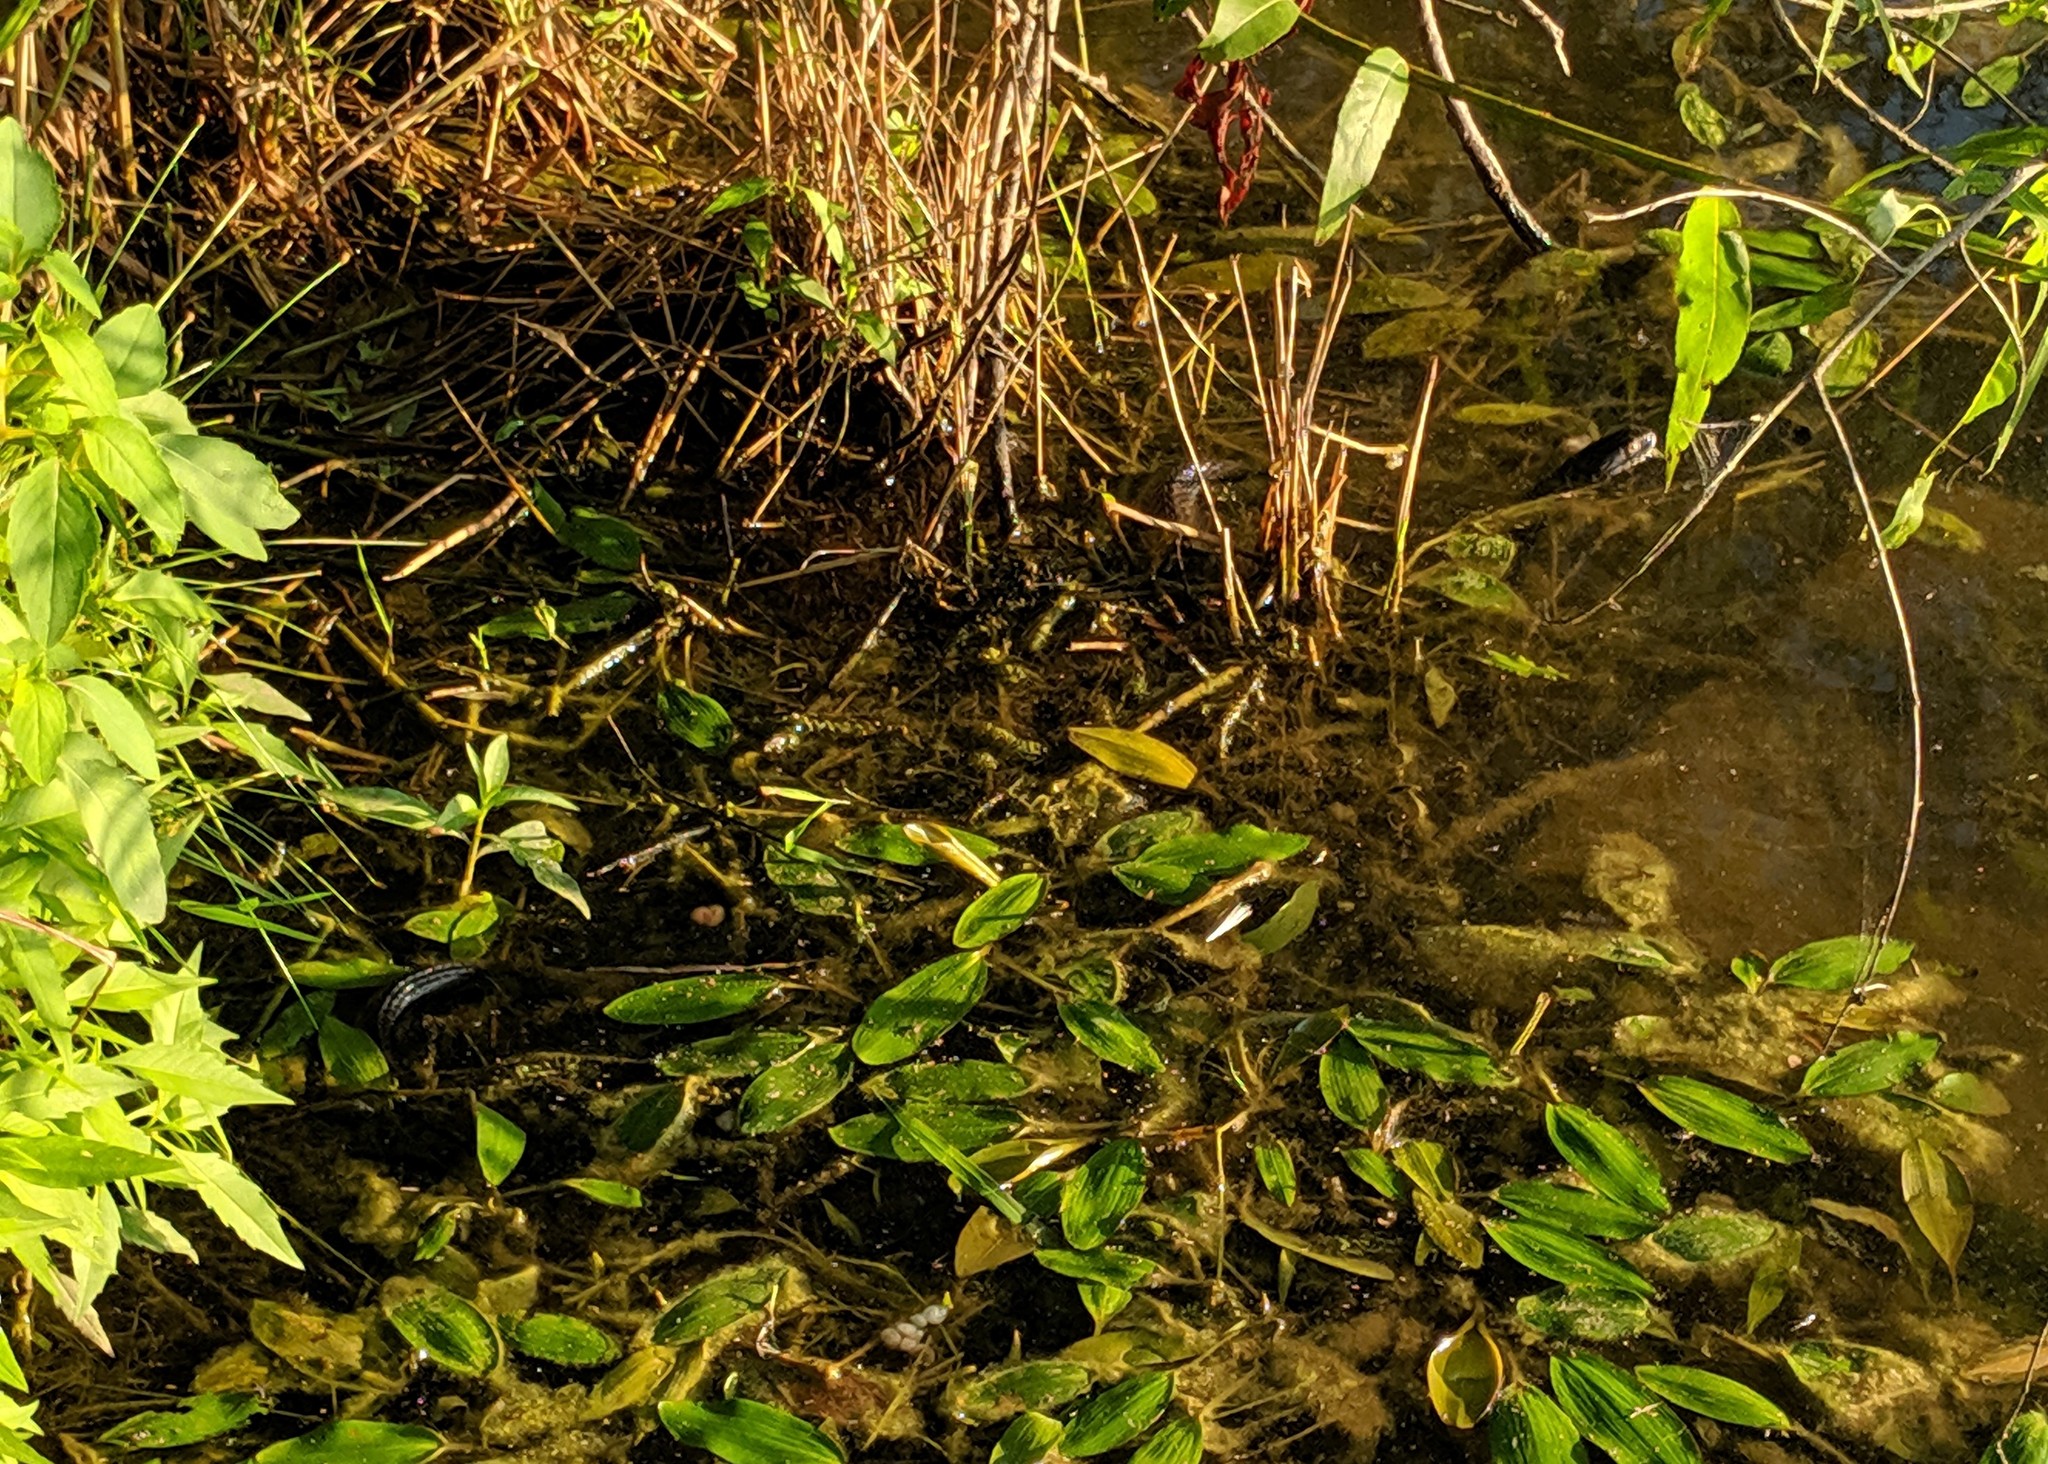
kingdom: Animalia
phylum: Chordata
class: Squamata
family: Colubridae
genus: Nerodia
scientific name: Nerodia sipedon
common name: Northern water snake
